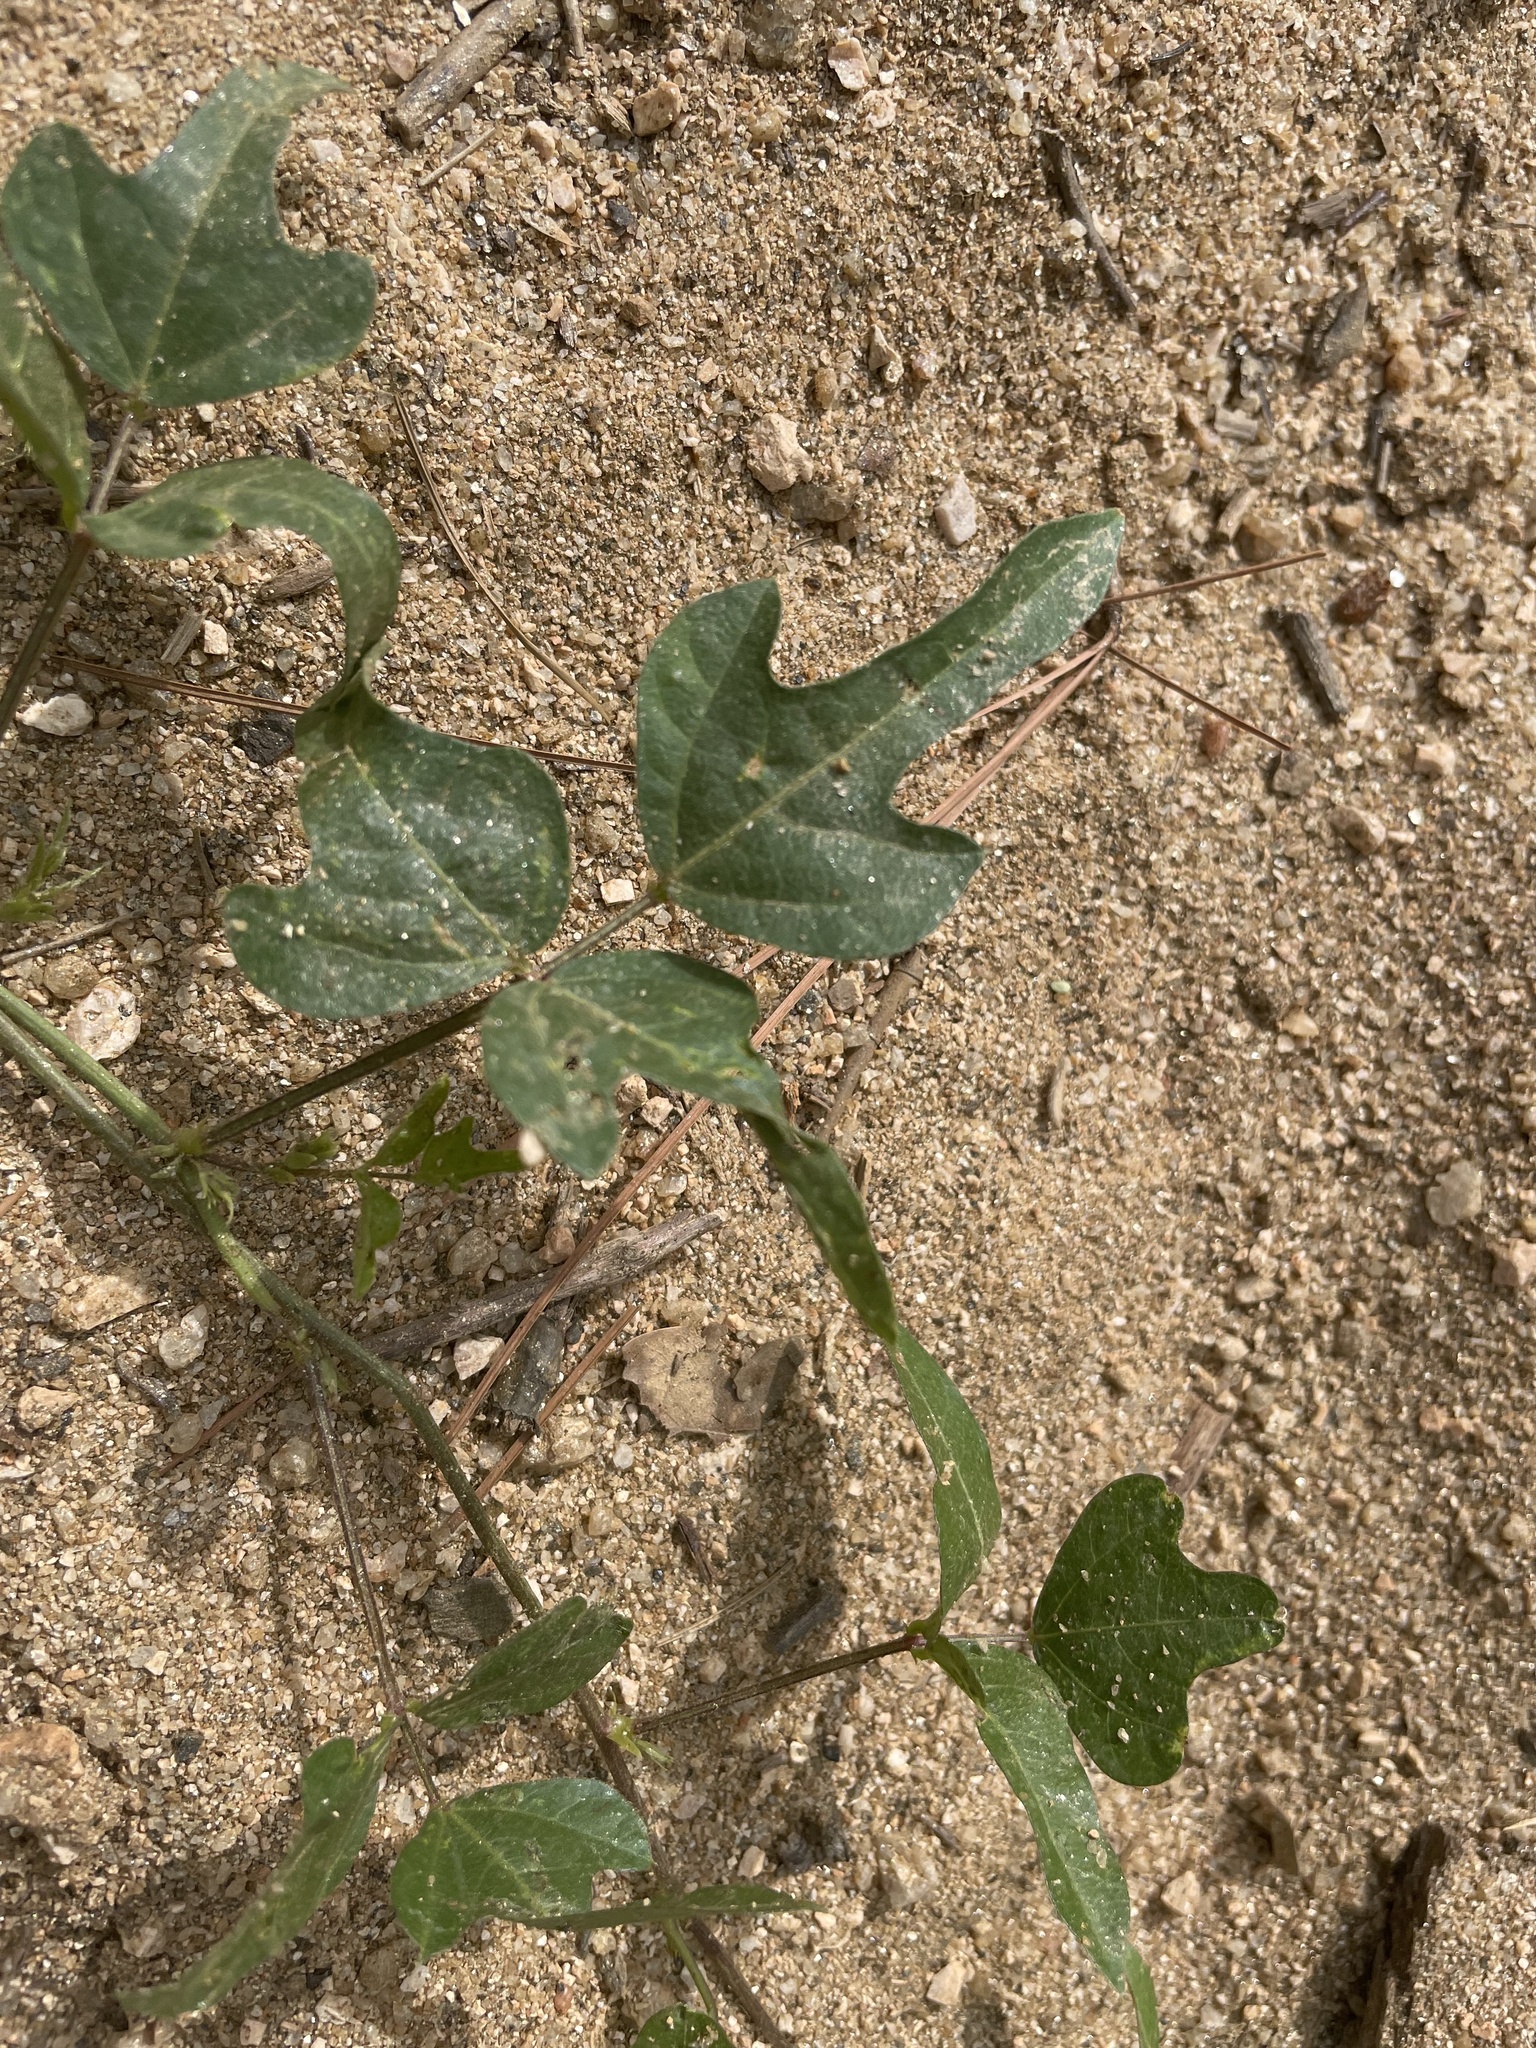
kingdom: Plantae
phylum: Tracheophyta
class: Magnoliopsida
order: Fabales
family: Fabaceae
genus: Strophostyles
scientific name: Strophostyles helvola
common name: Trailing wild bean
